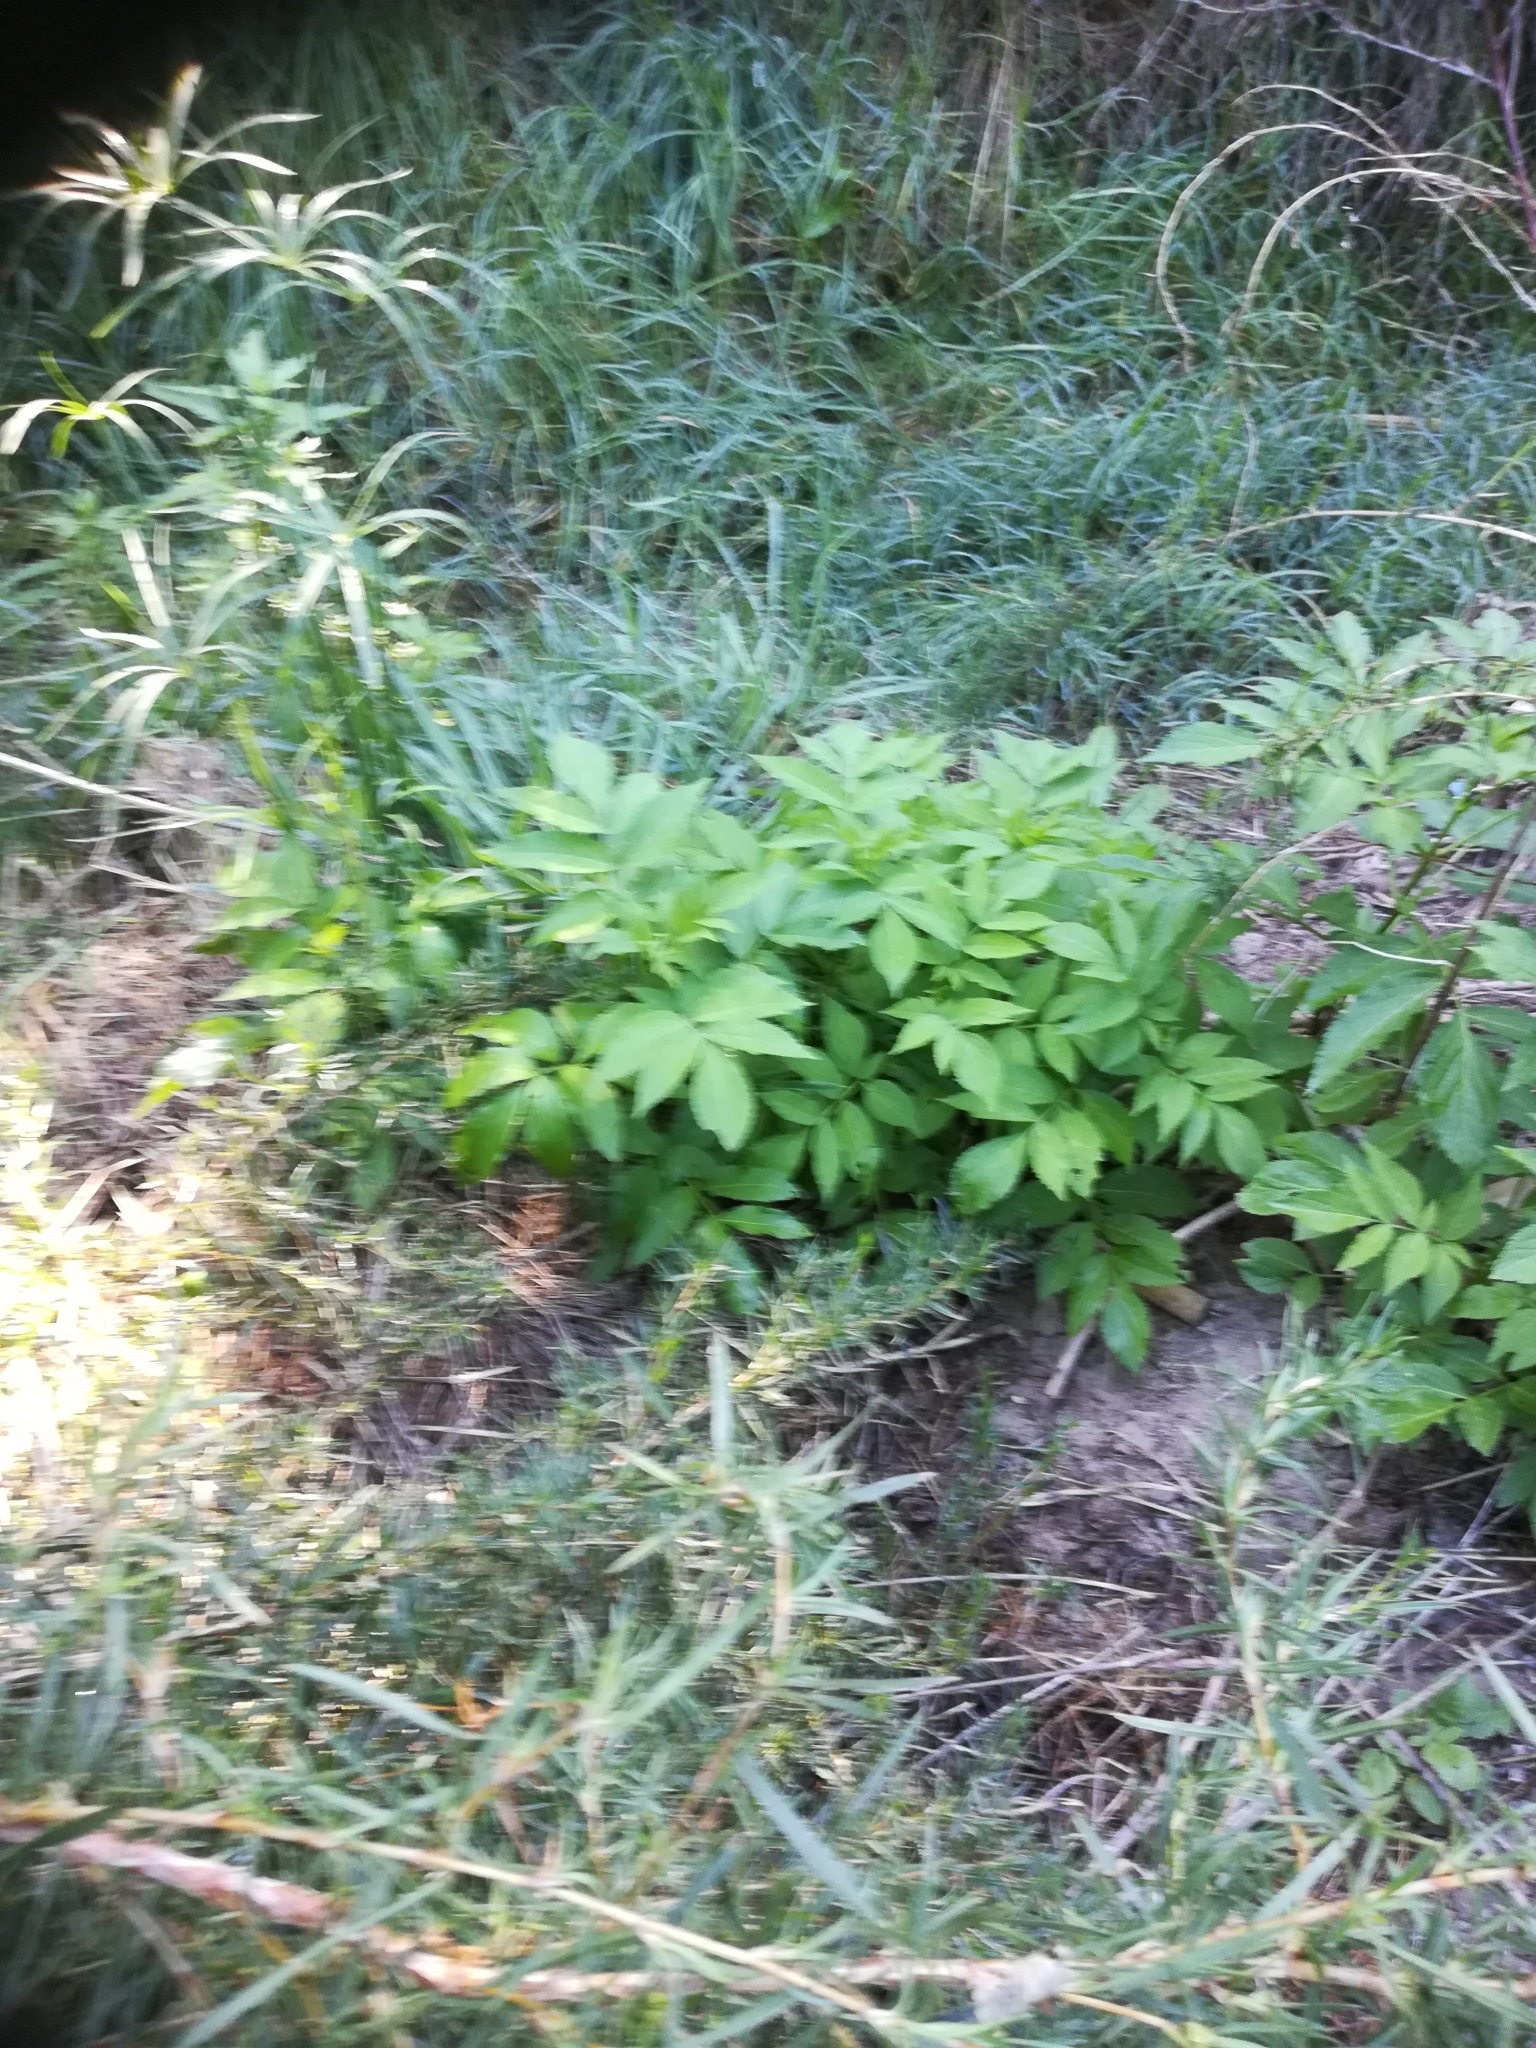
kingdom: Plantae
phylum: Tracheophyta
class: Magnoliopsida
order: Dipsacales
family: Viburnaceae
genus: Sambucus
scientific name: Sambucus nigra
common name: Elder
